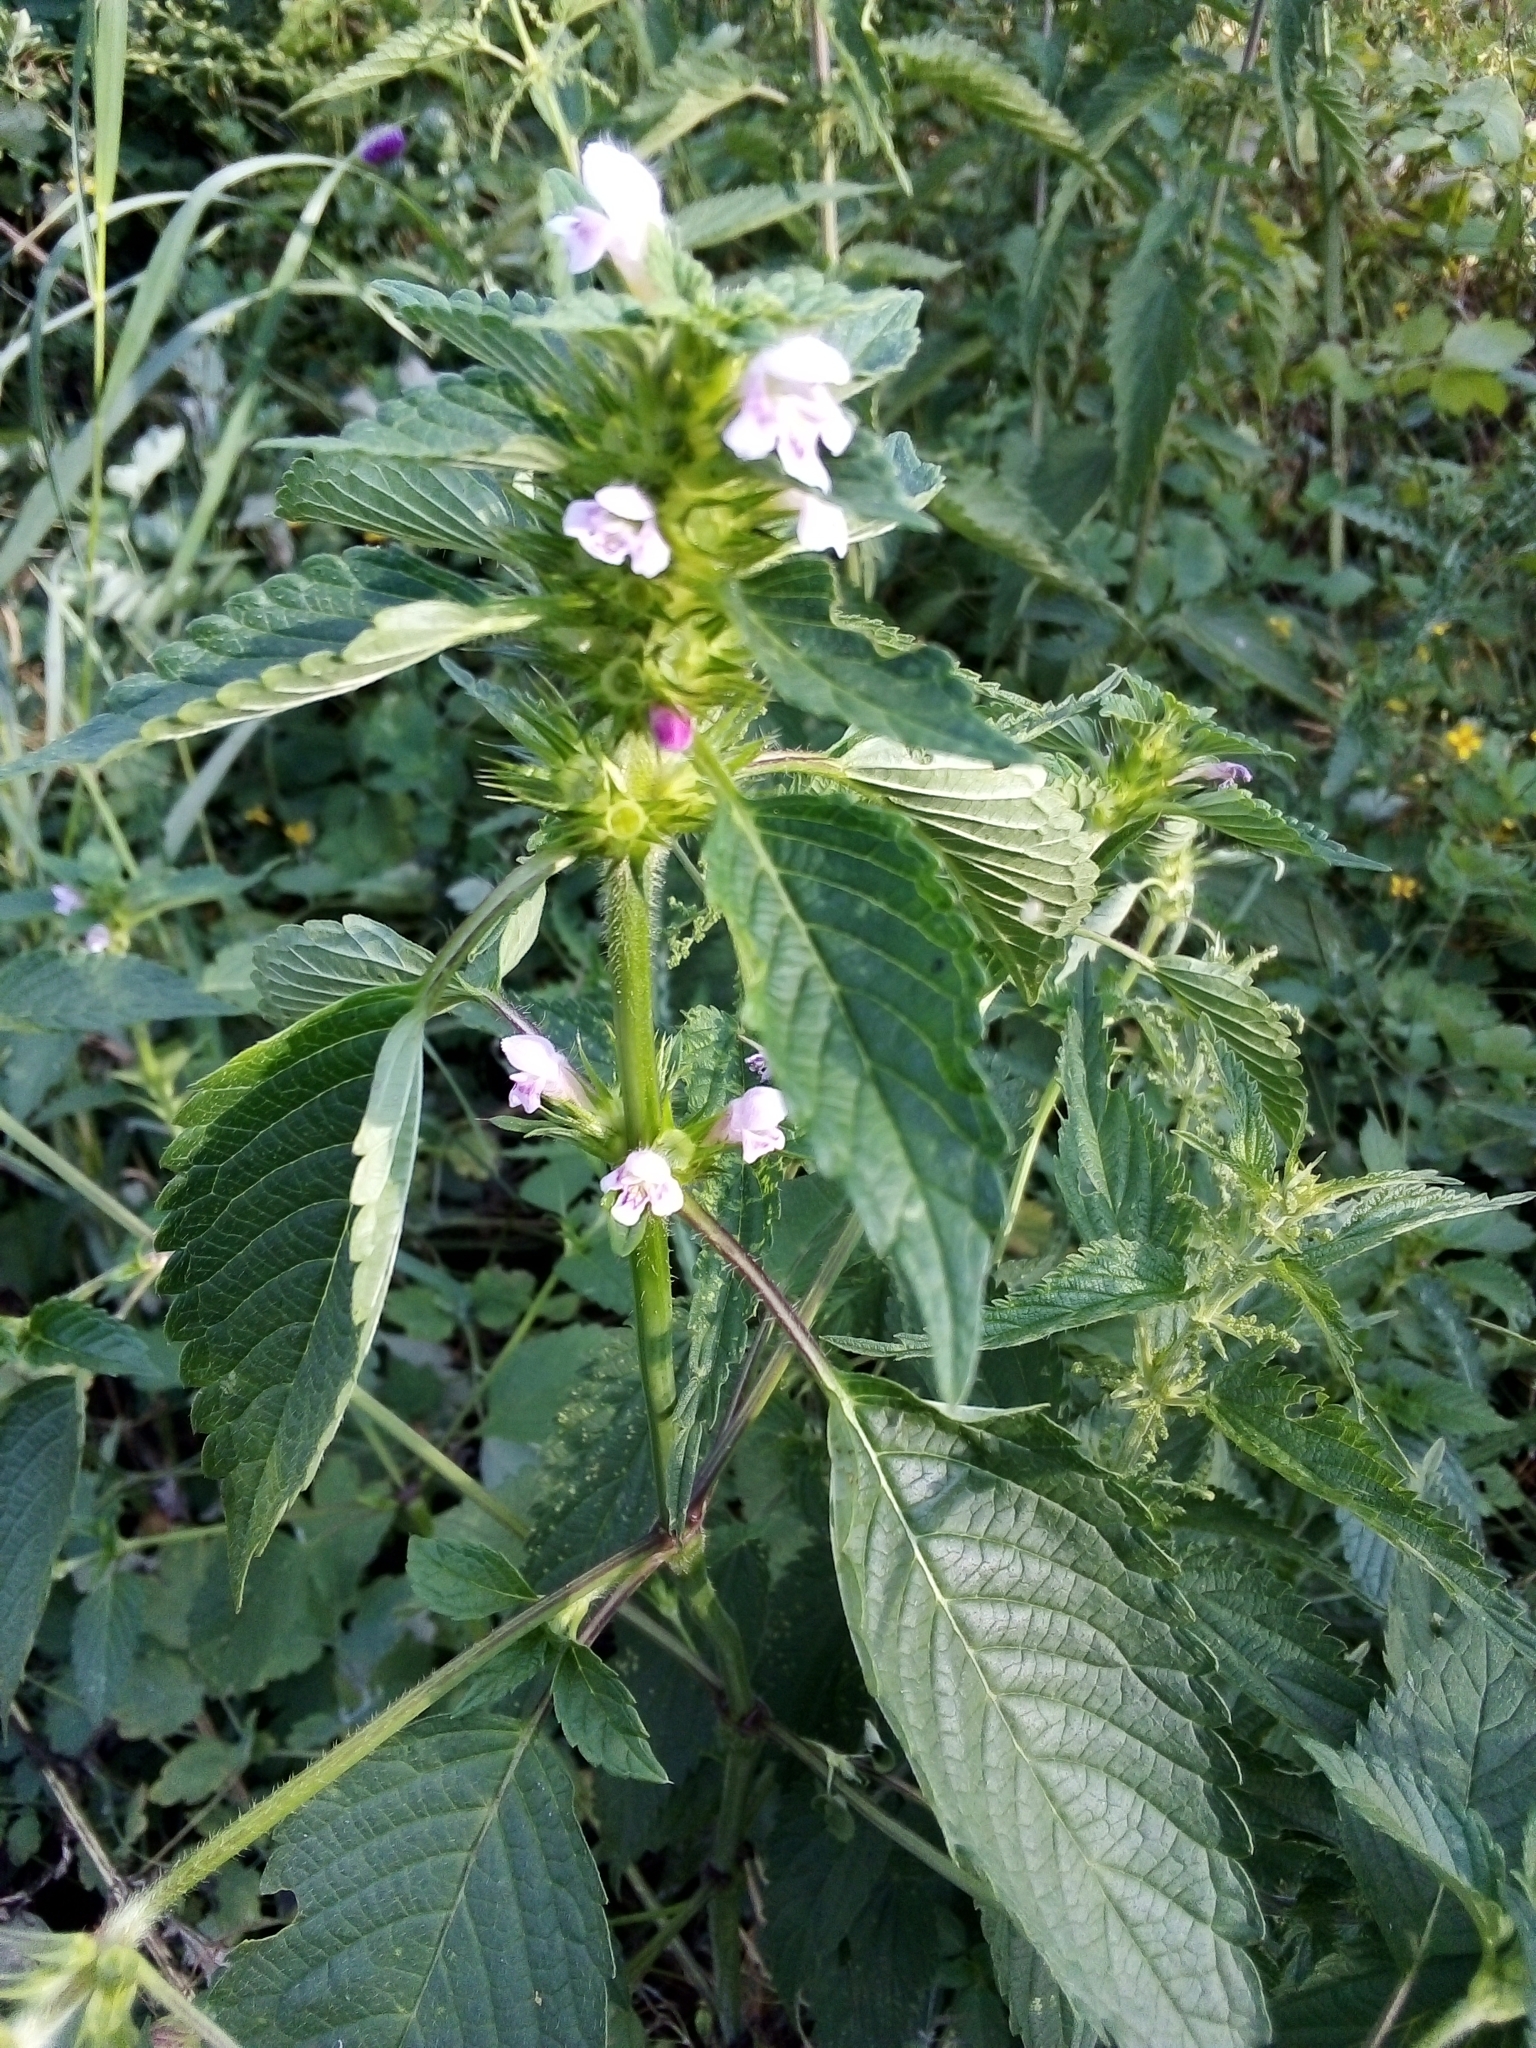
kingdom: Plantae
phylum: Tracheophyta
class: Magnoliopsida
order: Lamiales
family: Lamiaceae
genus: Galeopsis
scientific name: Galeopsis tetrahit
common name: Common hemp-nettle
